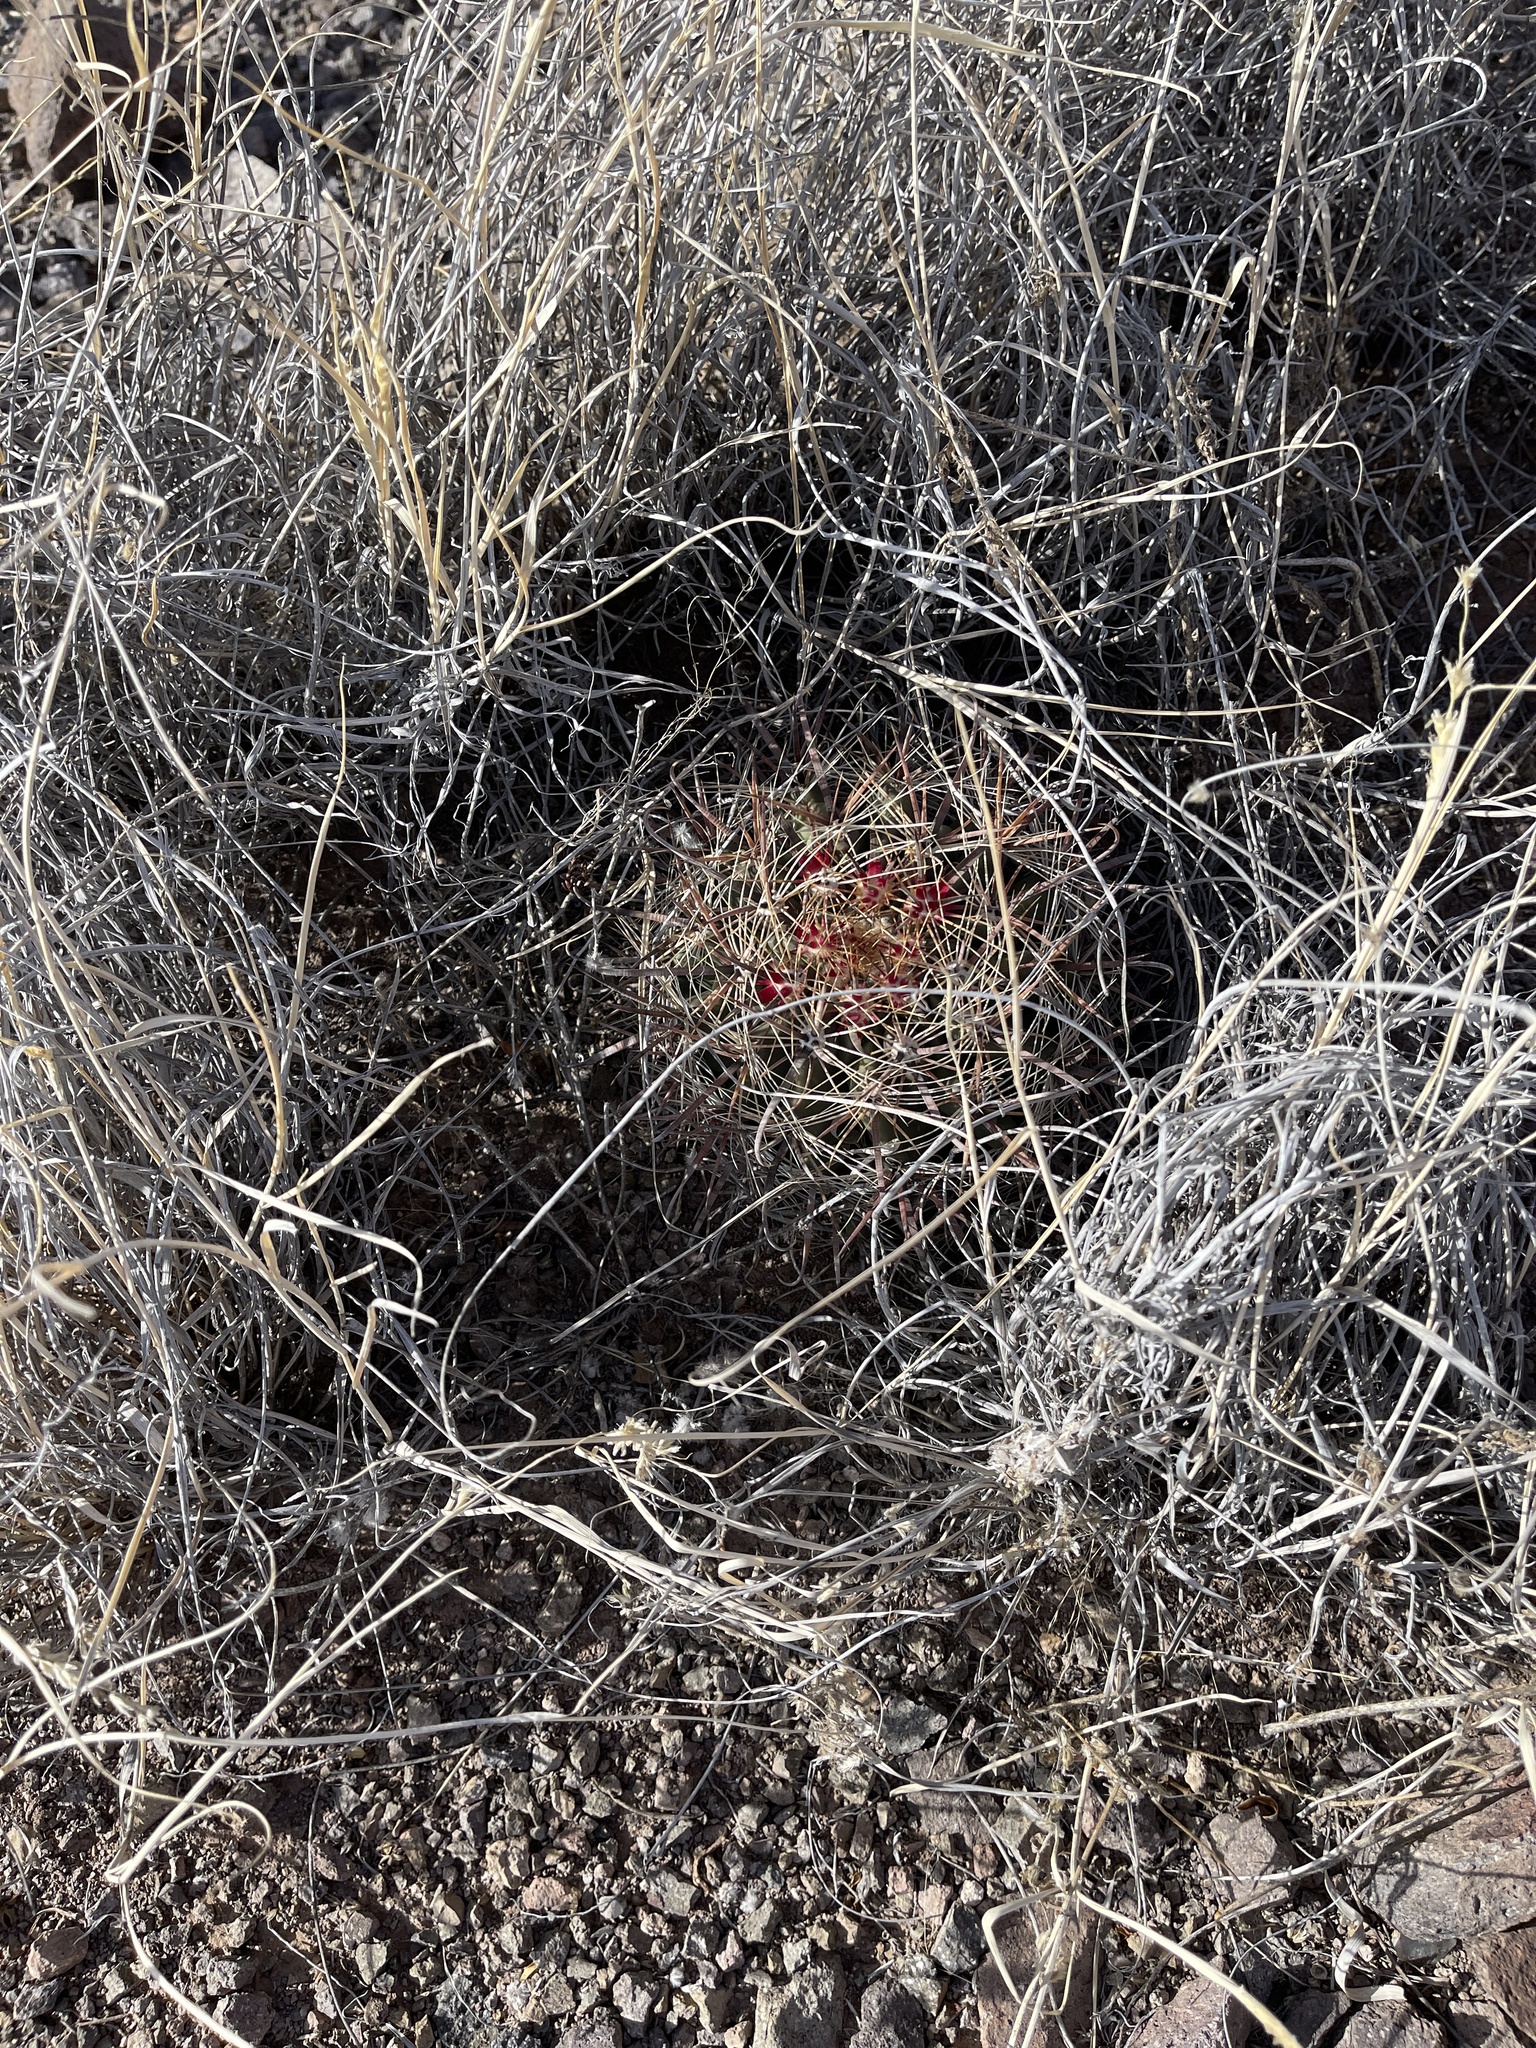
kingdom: Plantae
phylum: Tracheophyta
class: Magnoliopsida
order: Caryophyllales
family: Cactaceae
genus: Ferocactus
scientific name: Ferocactus wislizeni
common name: Candy barrel cactus
